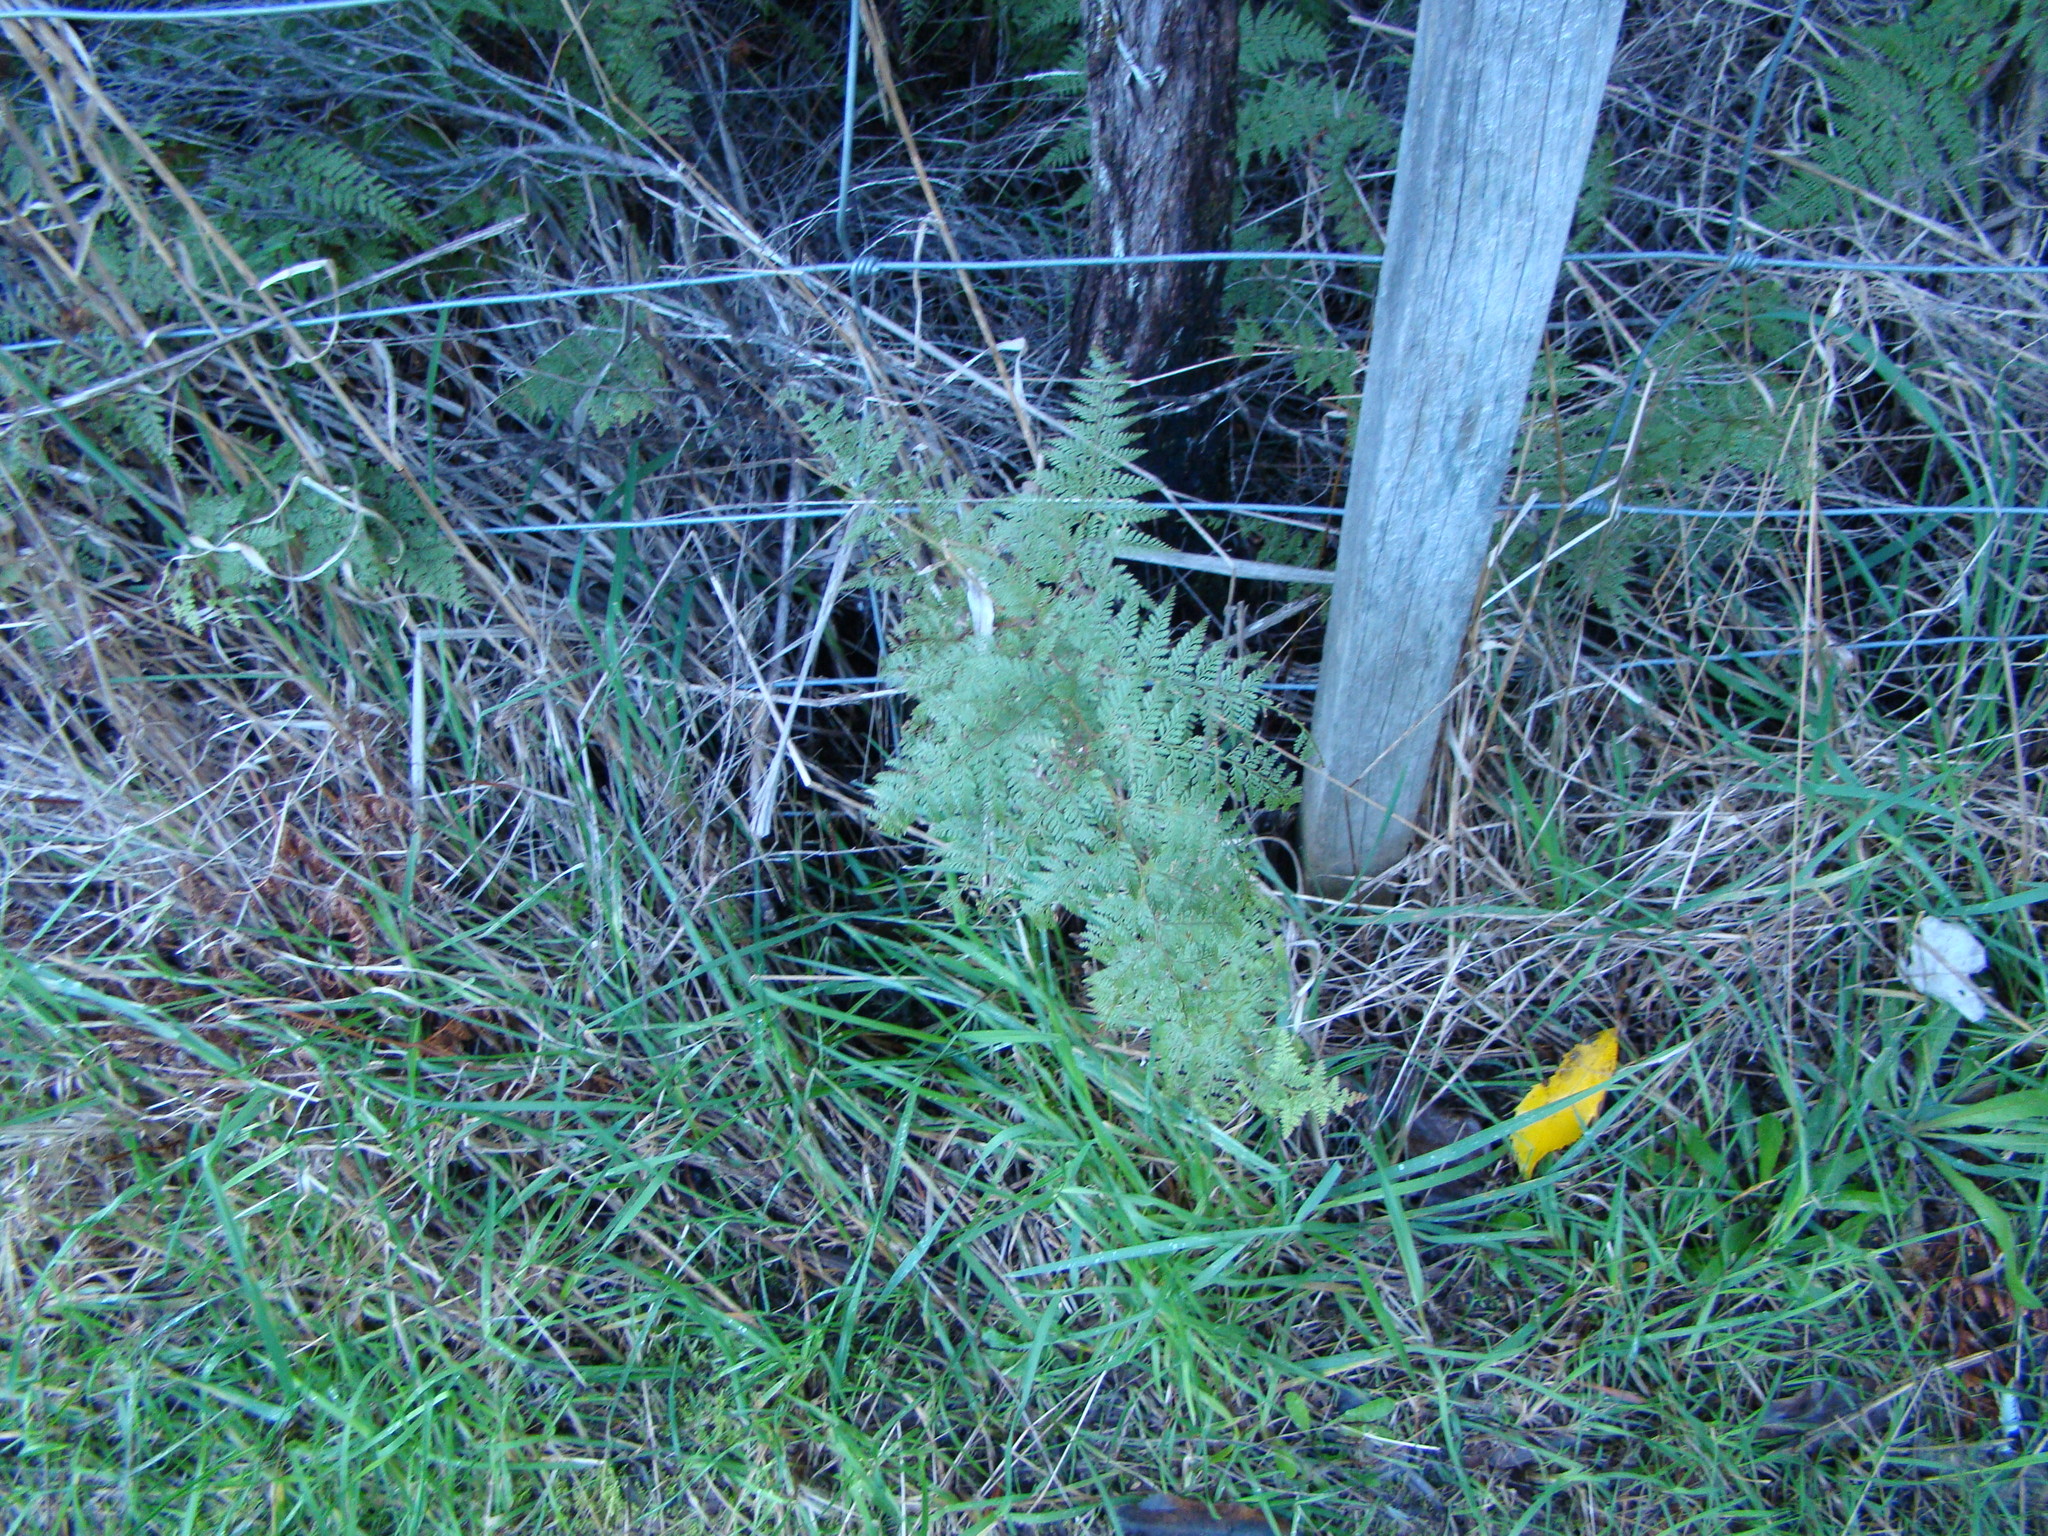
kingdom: Plantae
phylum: Tracheophyta
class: Polypodiopsida
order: Polypodiales
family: Dennstaedtiaceae
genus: Paesia
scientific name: Paesia scaberula
